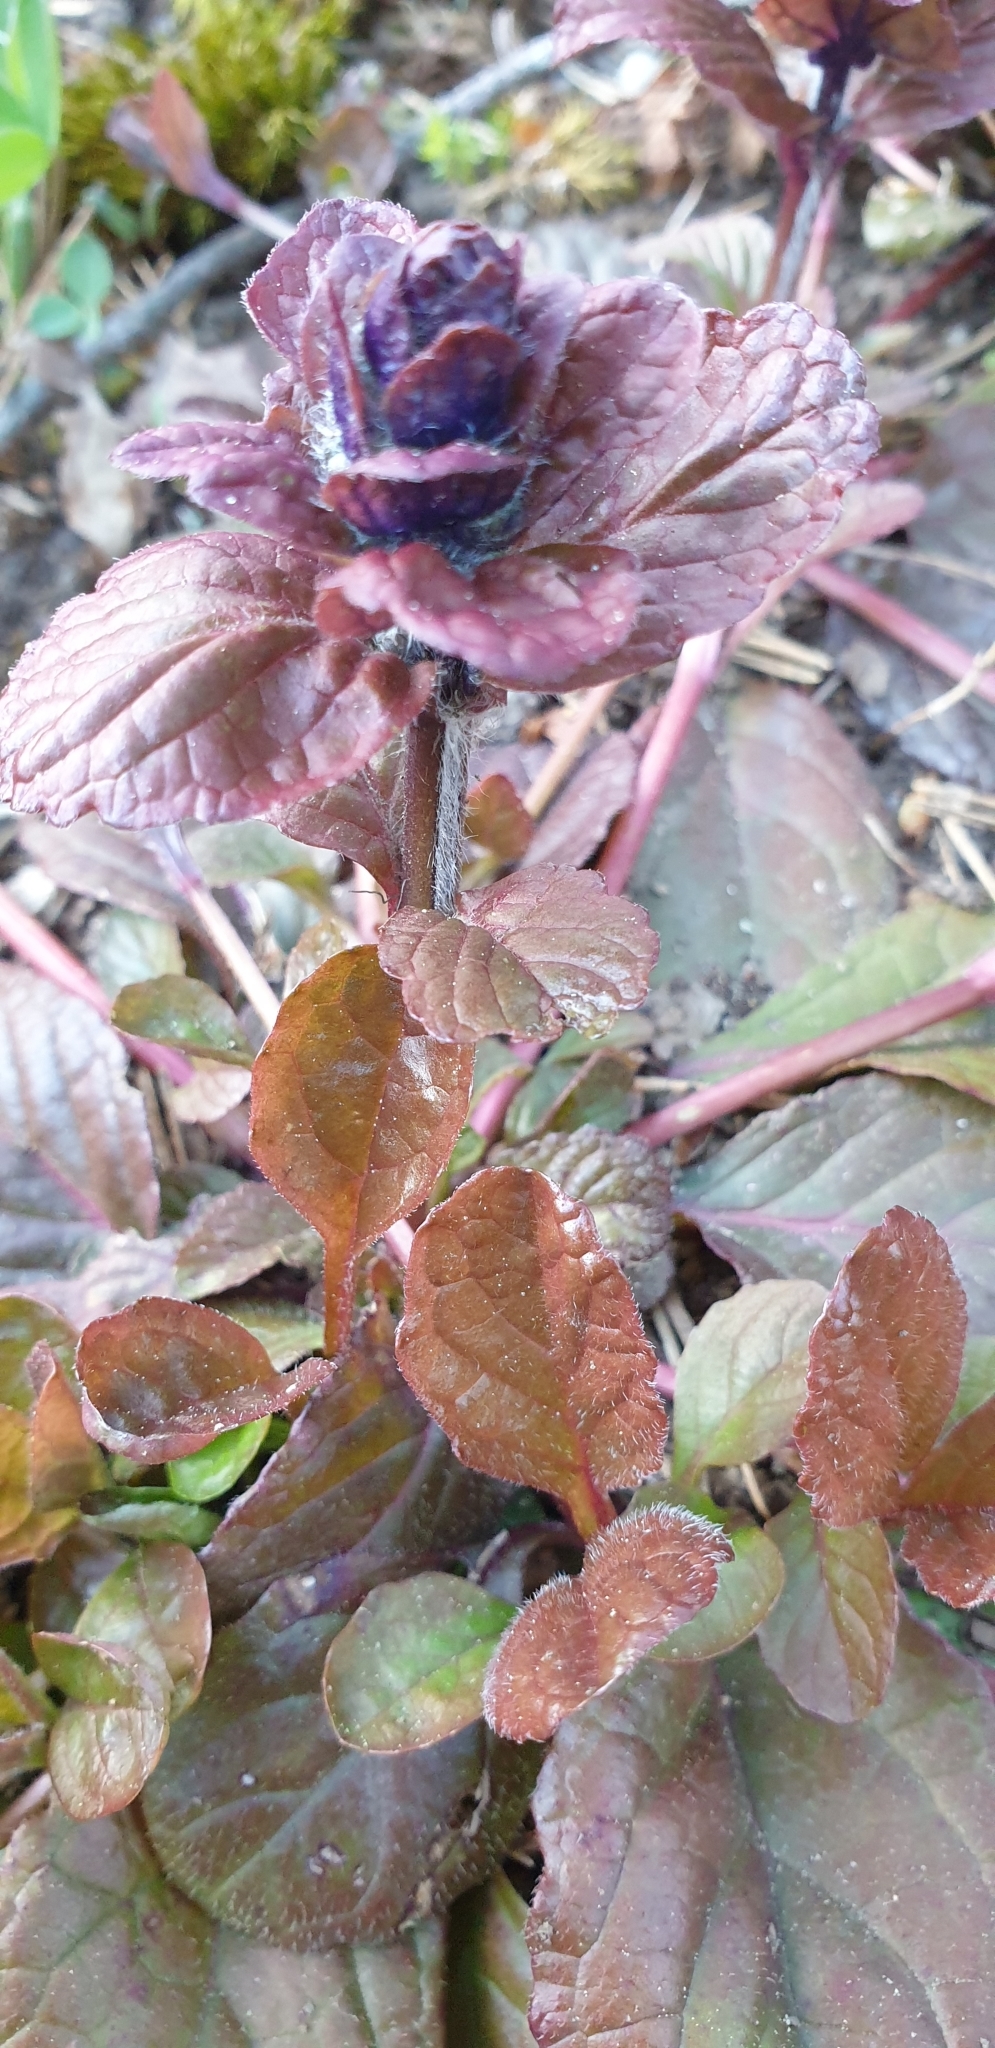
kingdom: Plantae
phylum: Tracheophyta
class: Magnoliopsida
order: Lamiales
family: Lamiaceae
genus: Ajuga
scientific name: Ajuga reptans
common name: Bugle
